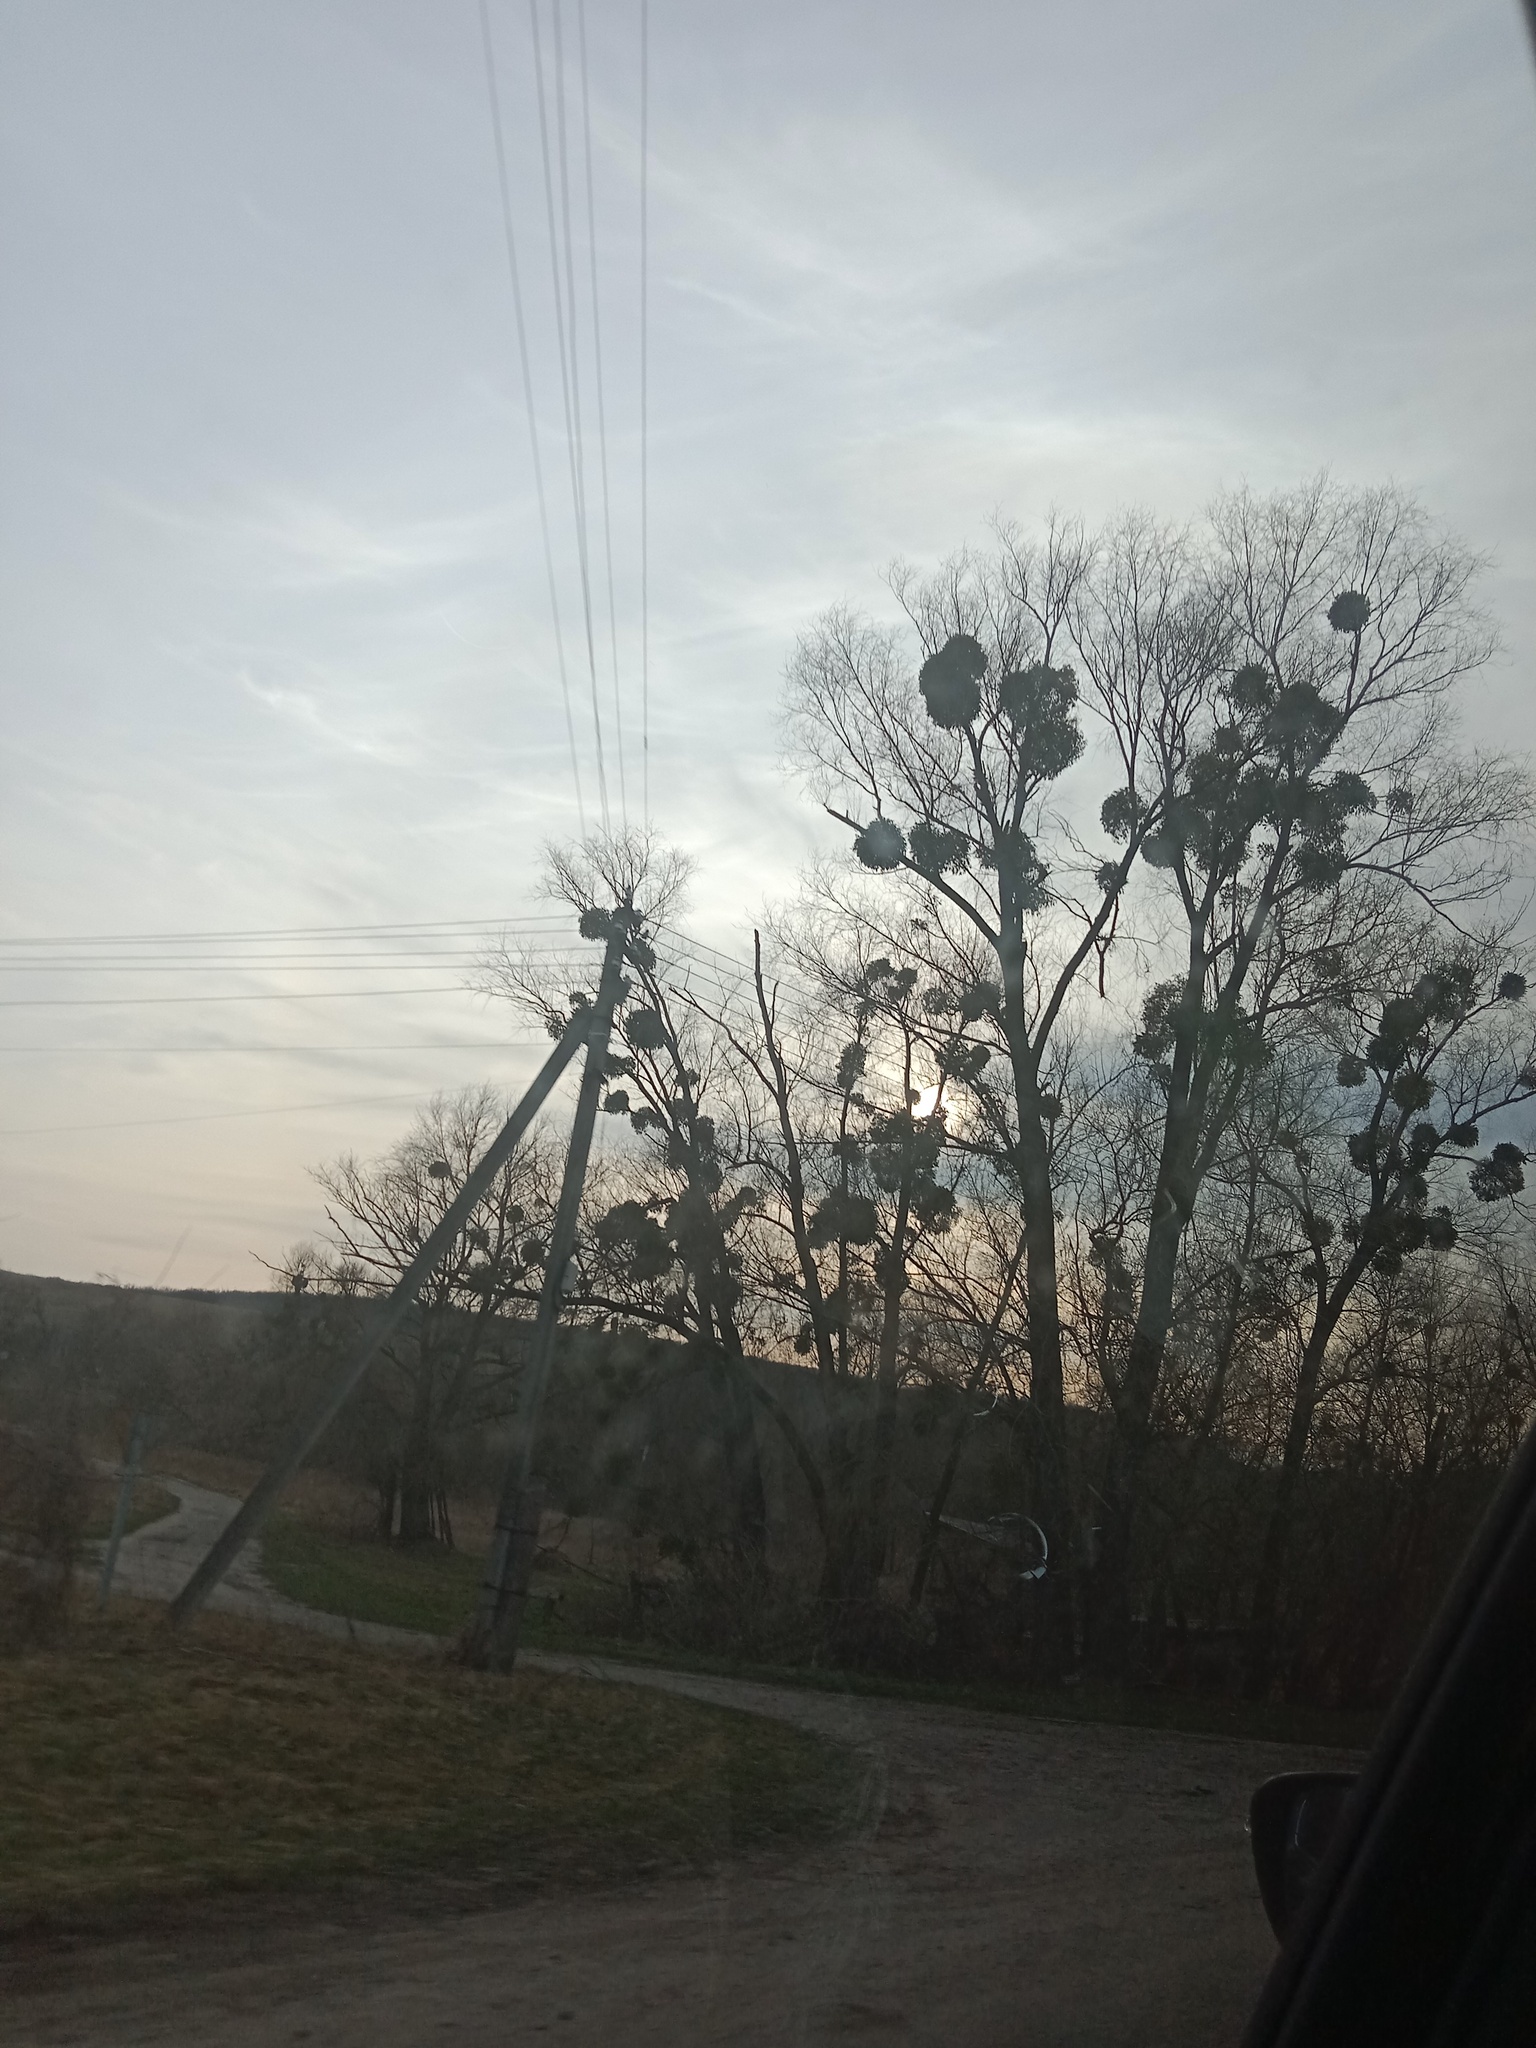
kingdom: Plantae
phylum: Tracheophyta
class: Magnoliopsida
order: Santalales
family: Viscaceae
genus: Viscum
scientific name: Viscum album
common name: Mistletoe
